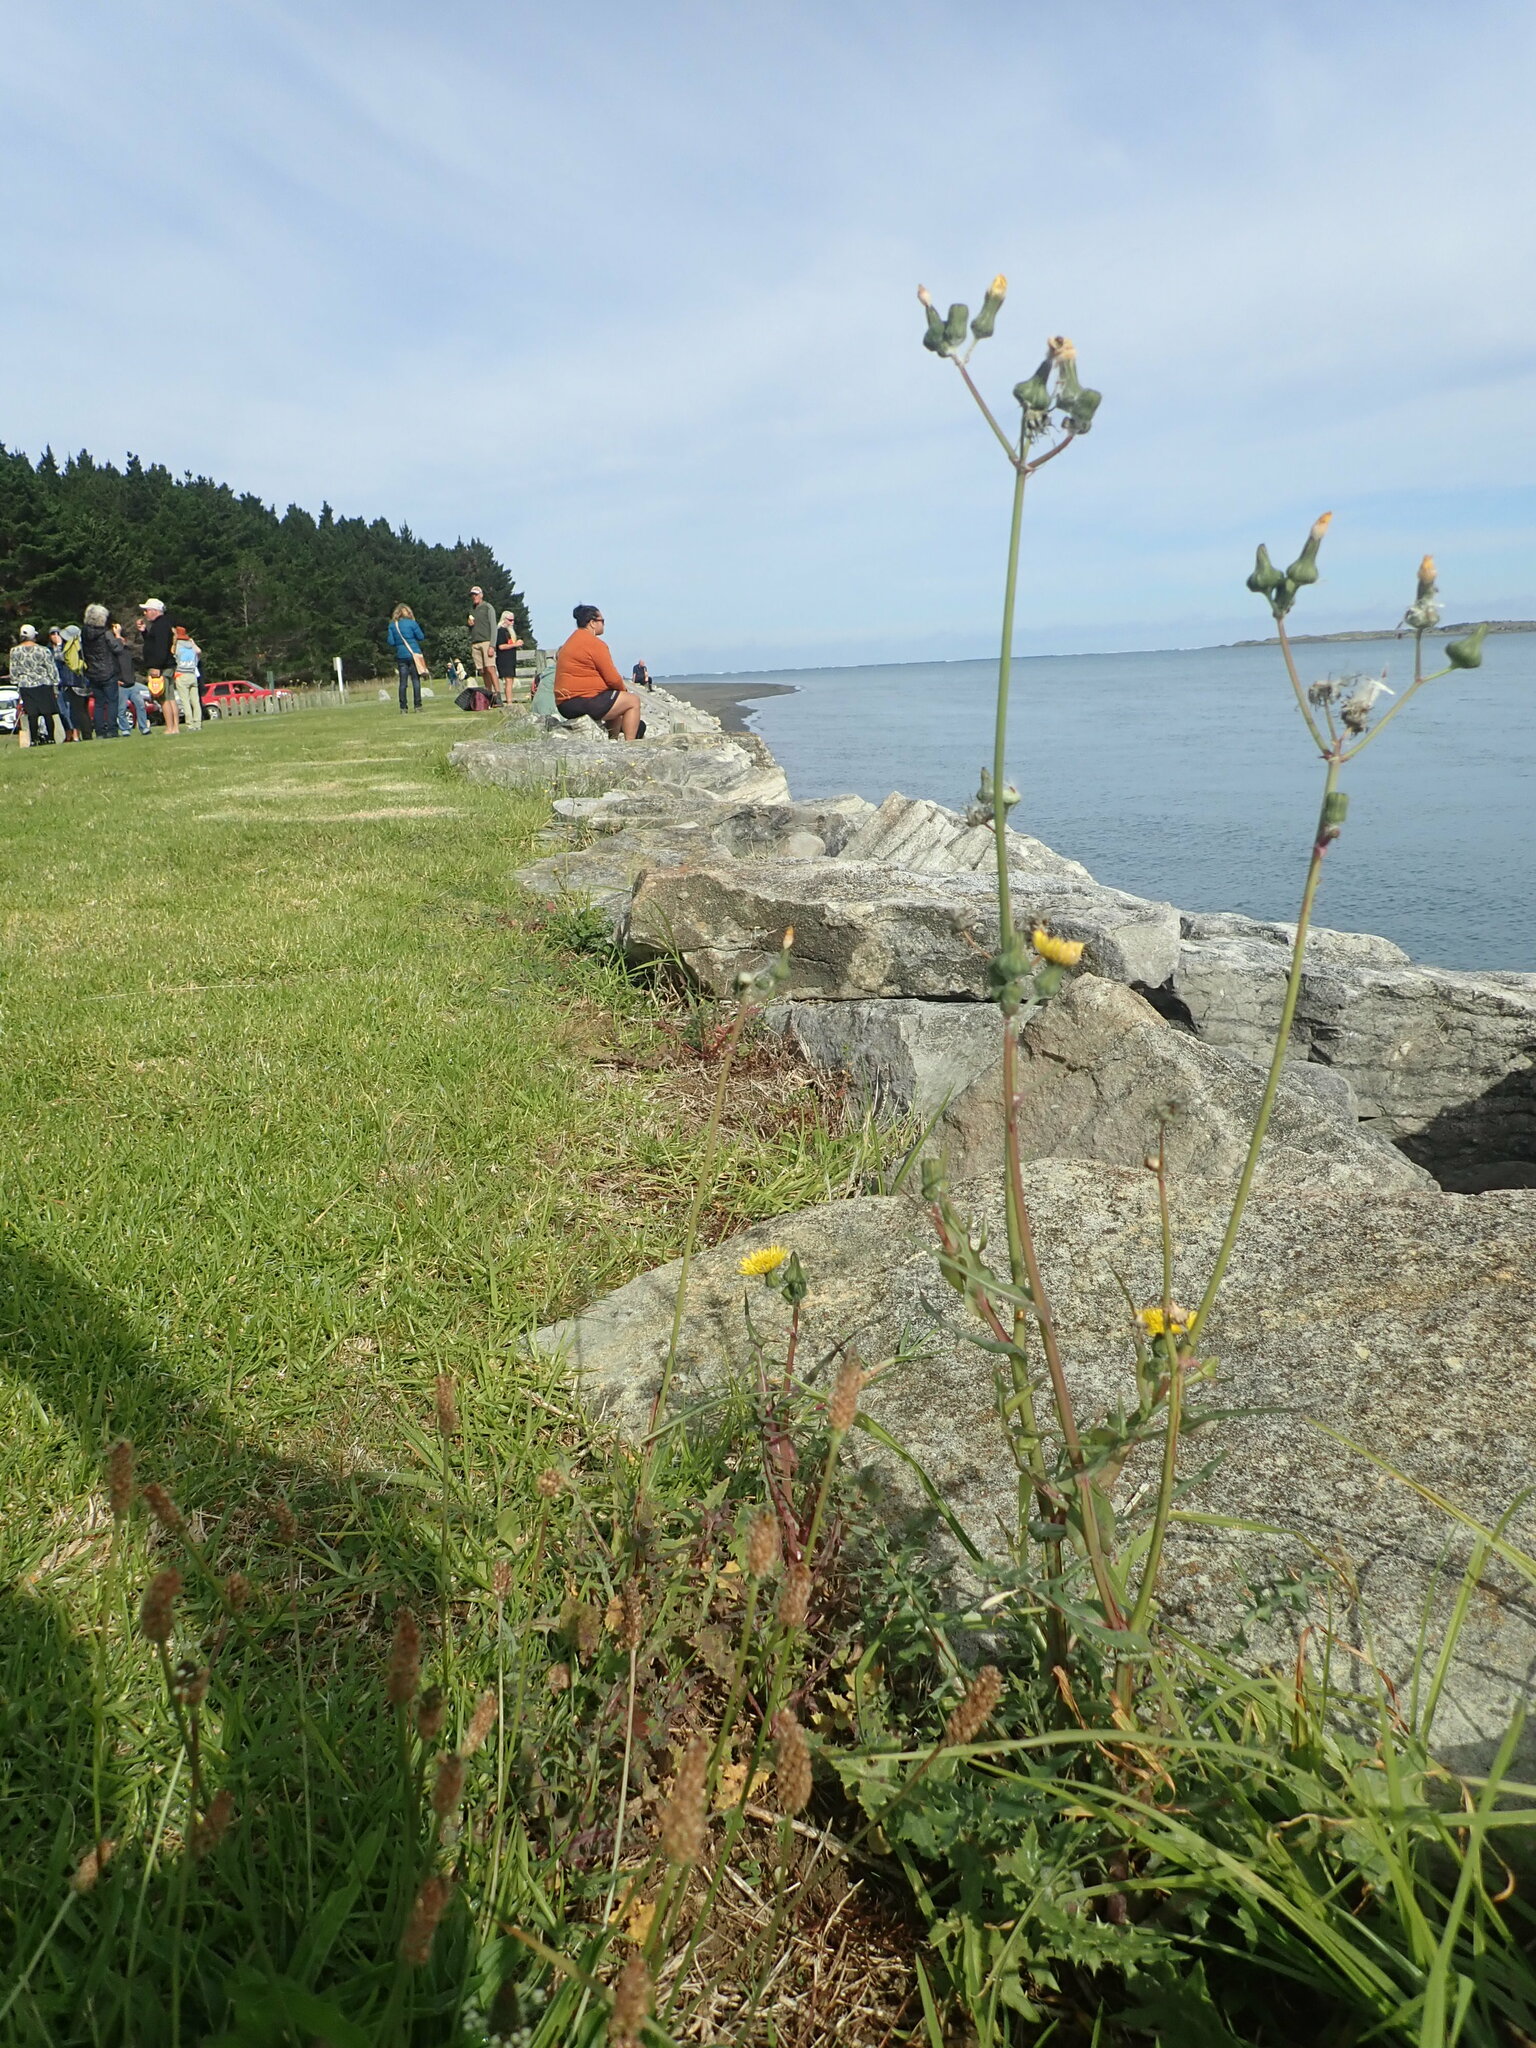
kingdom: Plantae
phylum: Tracheophyta
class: Magnoliopsida
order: Asterales
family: Asteraceae
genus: Sonchus
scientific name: Sonchus oleraceus
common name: Common sowthistle
